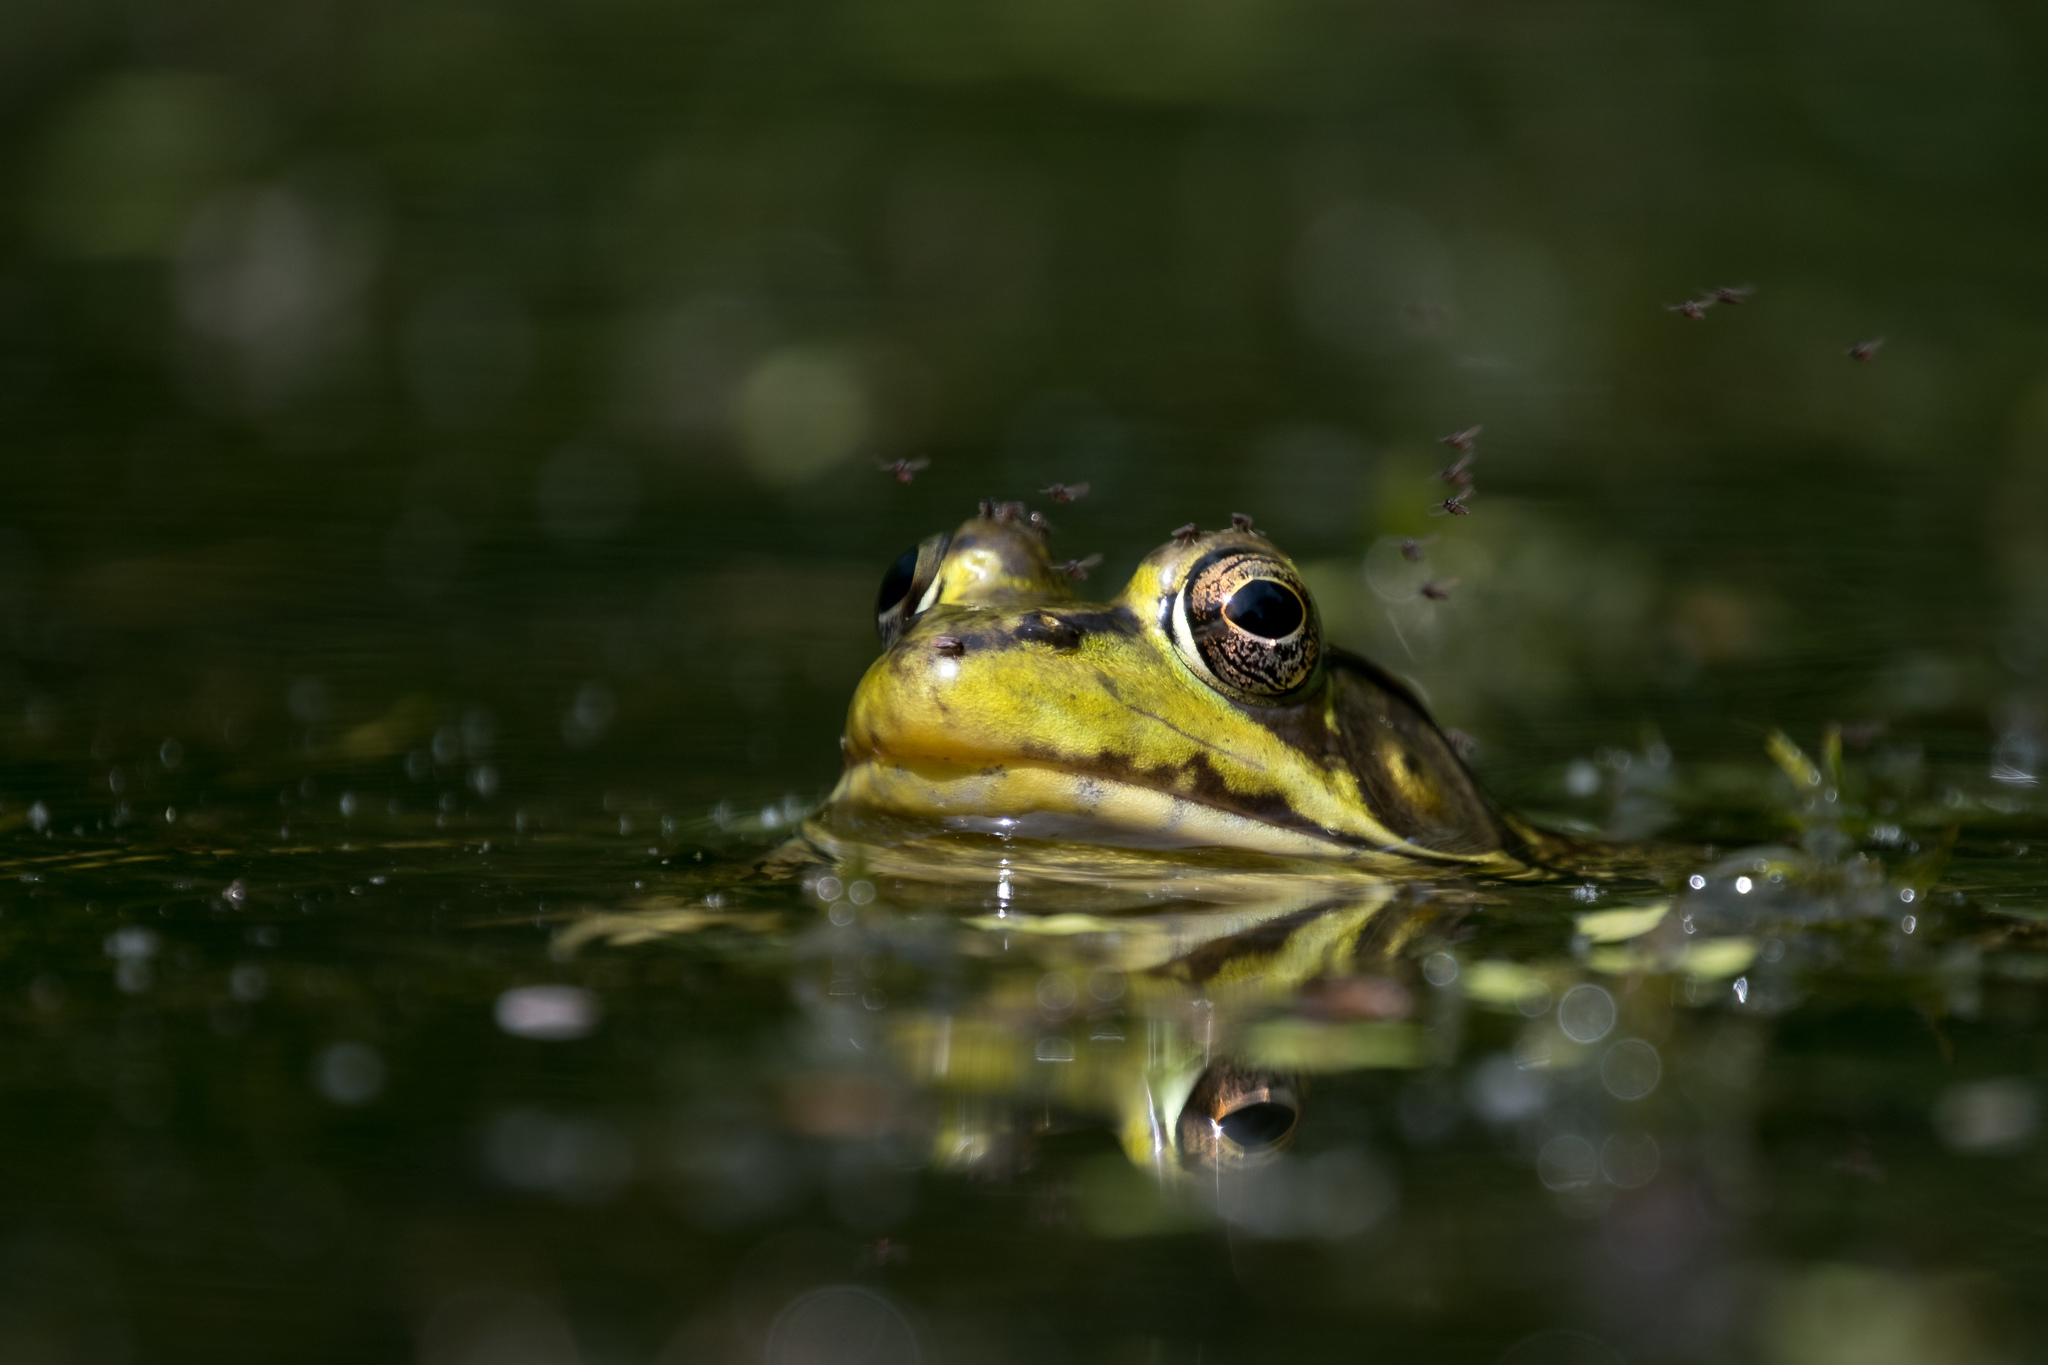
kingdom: Animalia
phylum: Chordata
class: Amphibia
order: Anura
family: Ranidae
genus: Lithobates
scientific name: Lithobates
